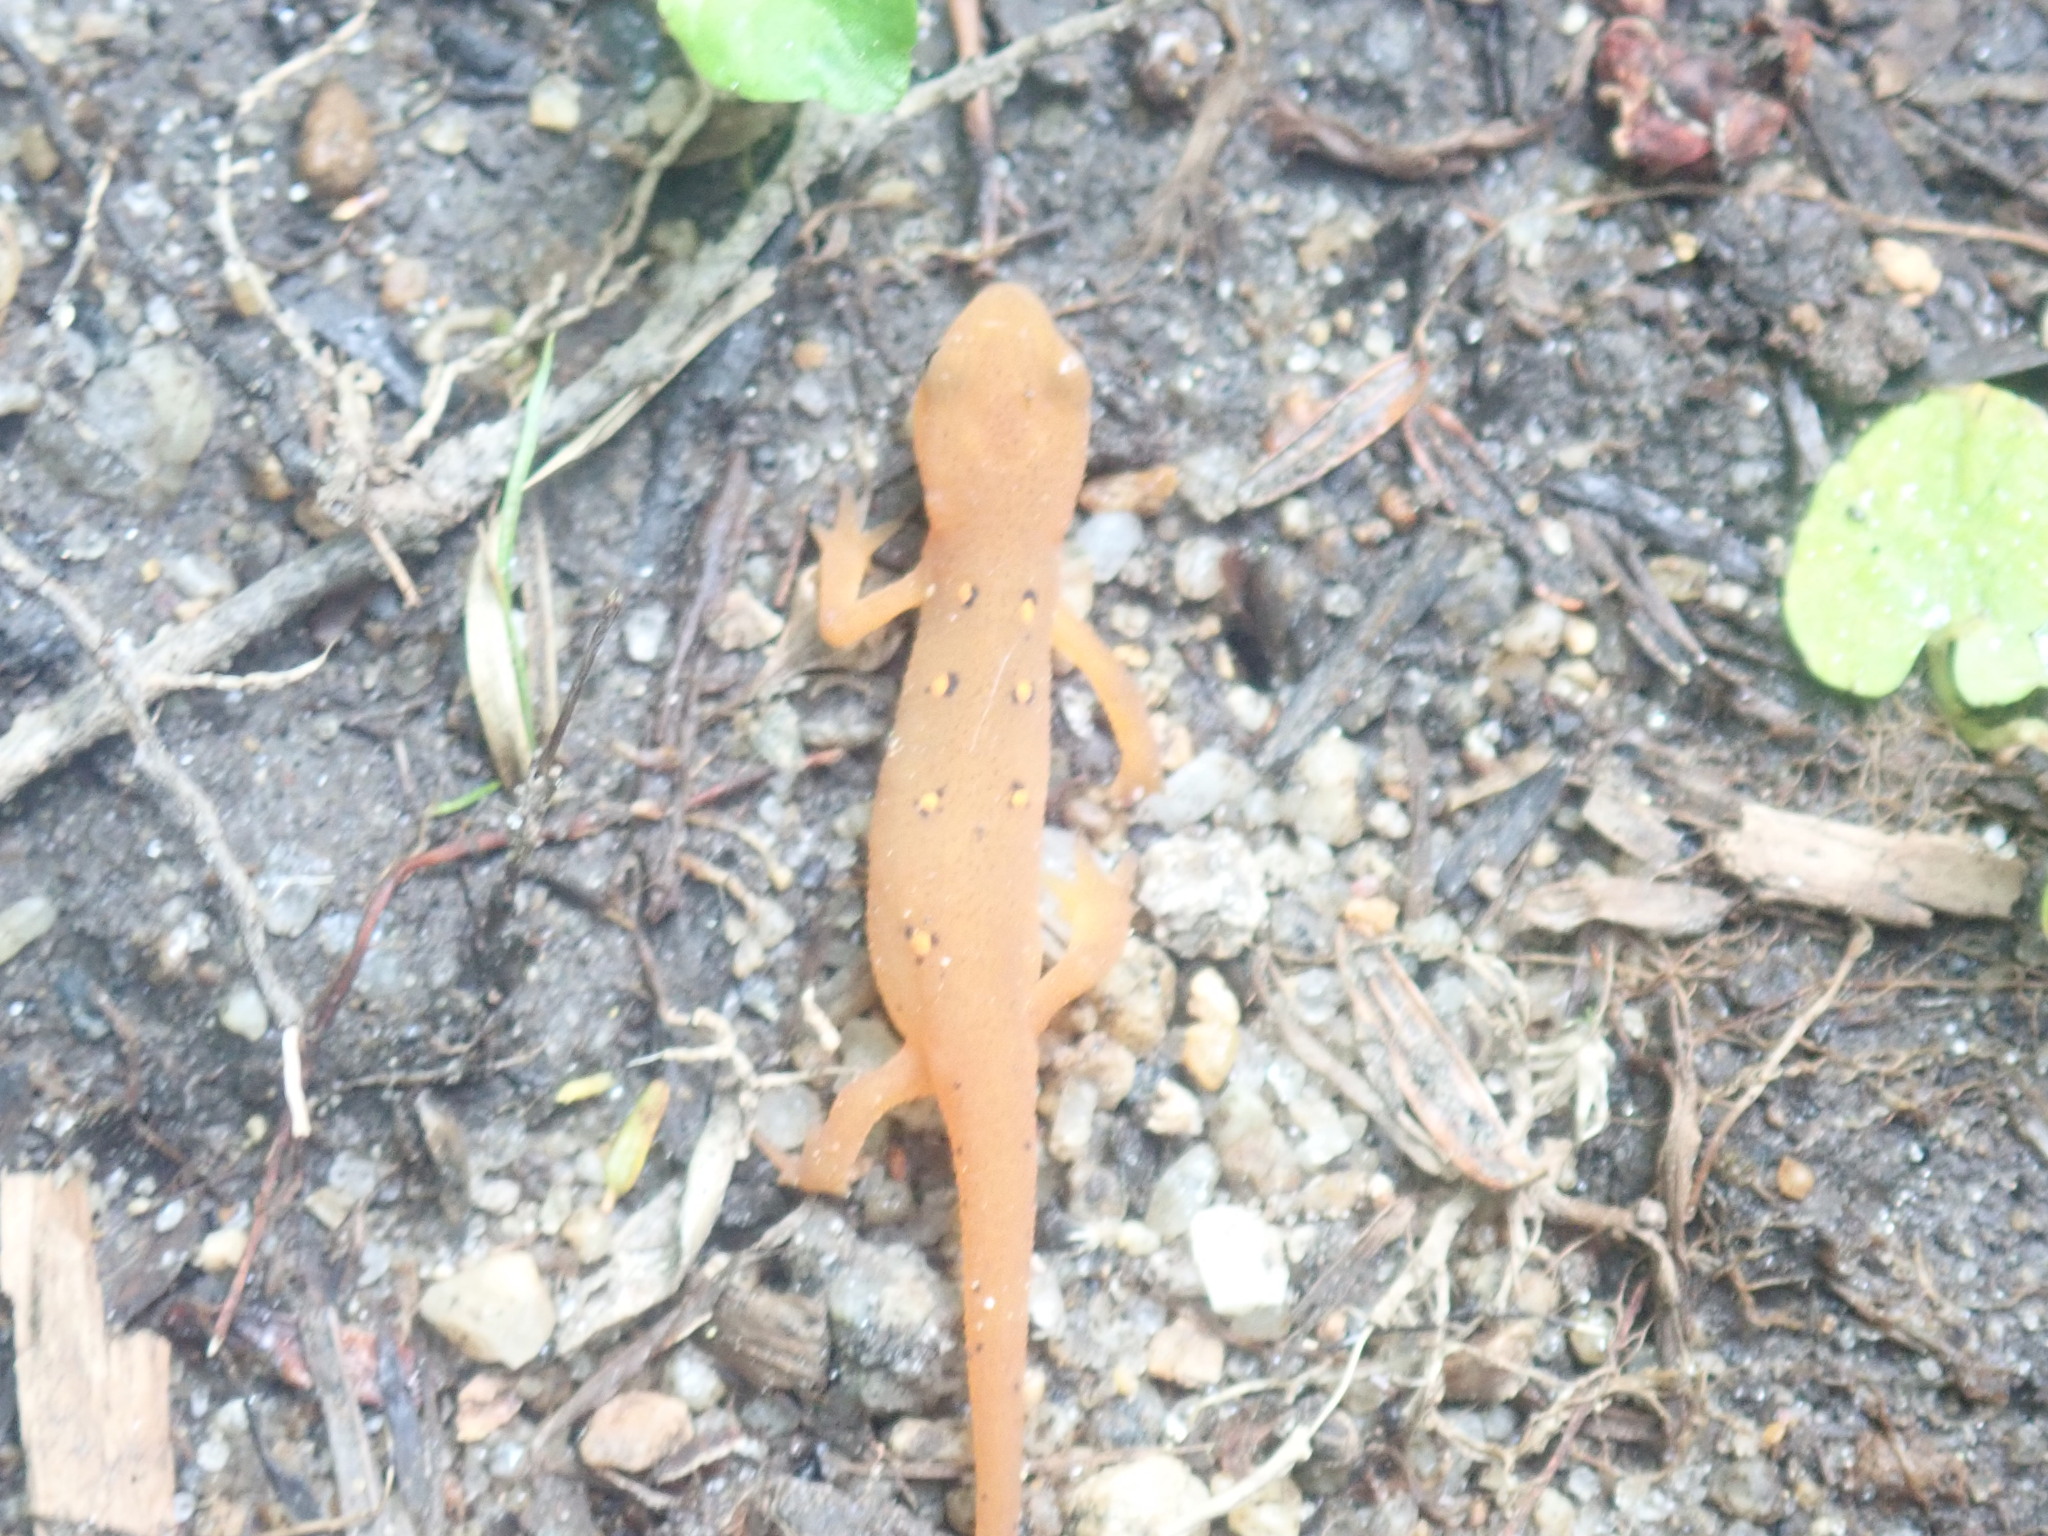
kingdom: Animalia
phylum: Chordata
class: Amphibia
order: Caudata
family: Salamandridae
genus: Notophthalmus
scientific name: Notophthalmus viridescens
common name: Eastern newt
